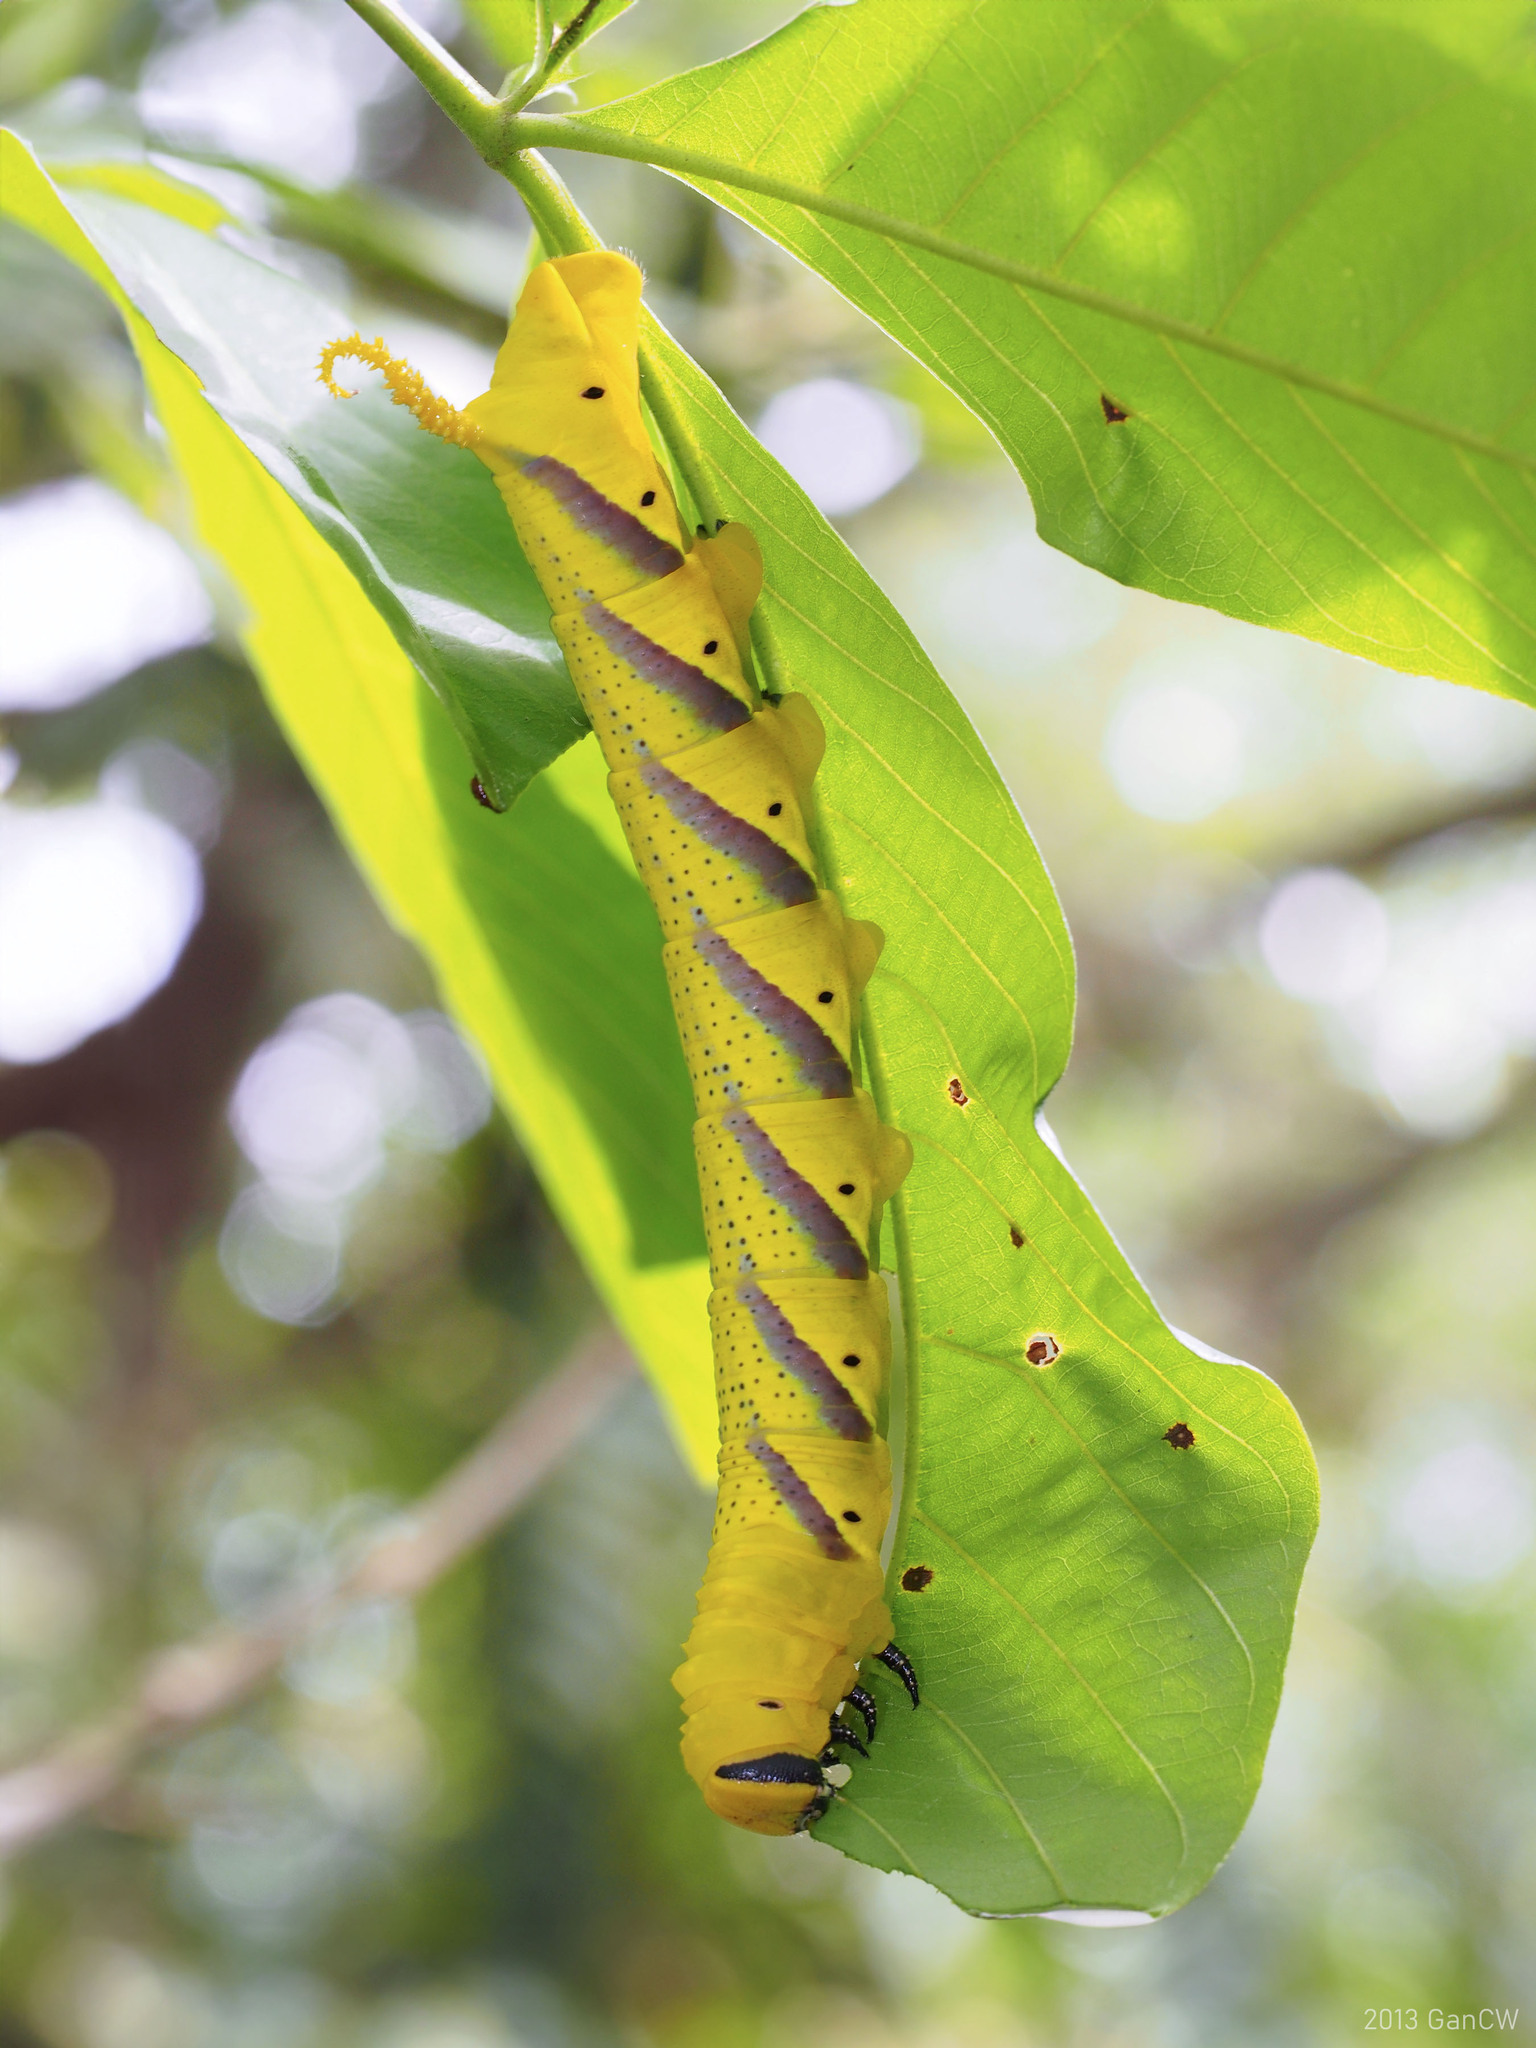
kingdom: Animalia
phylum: Arthropoda
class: Insecta
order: Lepidoptera
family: Sphingidae
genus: Acherontia
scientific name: Acherontia lachesis
